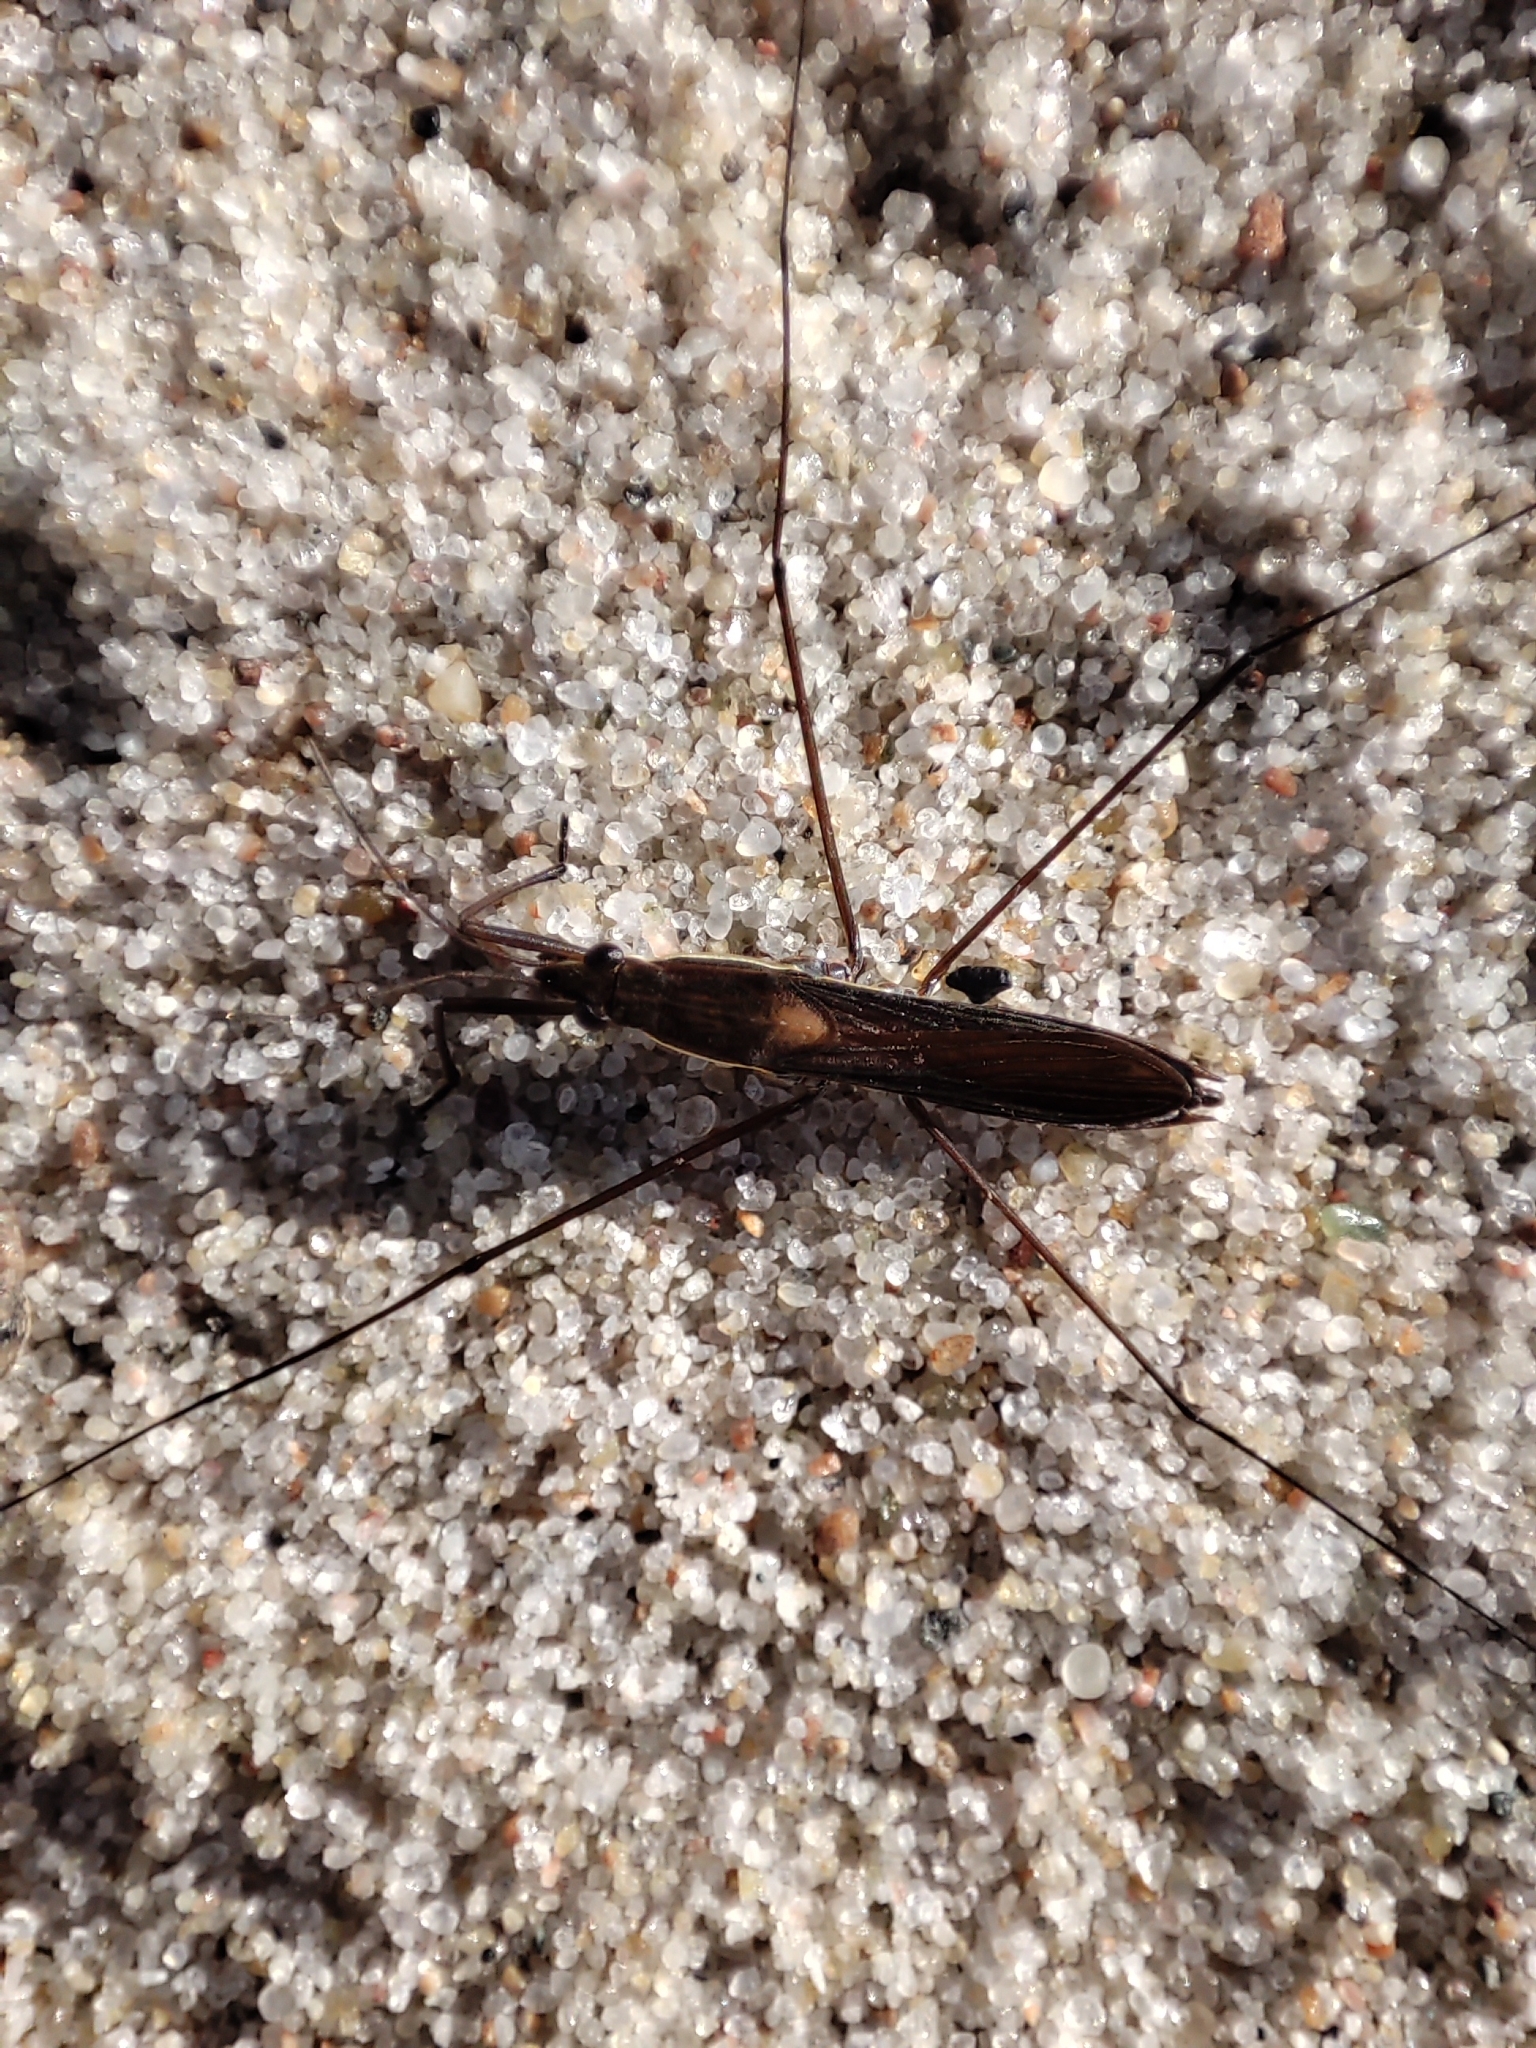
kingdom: Animalia
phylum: Arthropoda
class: Insecta
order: Hemiptera
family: Gerridae
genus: Limnoporus
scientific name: Limnoporus rufoscutellatus
